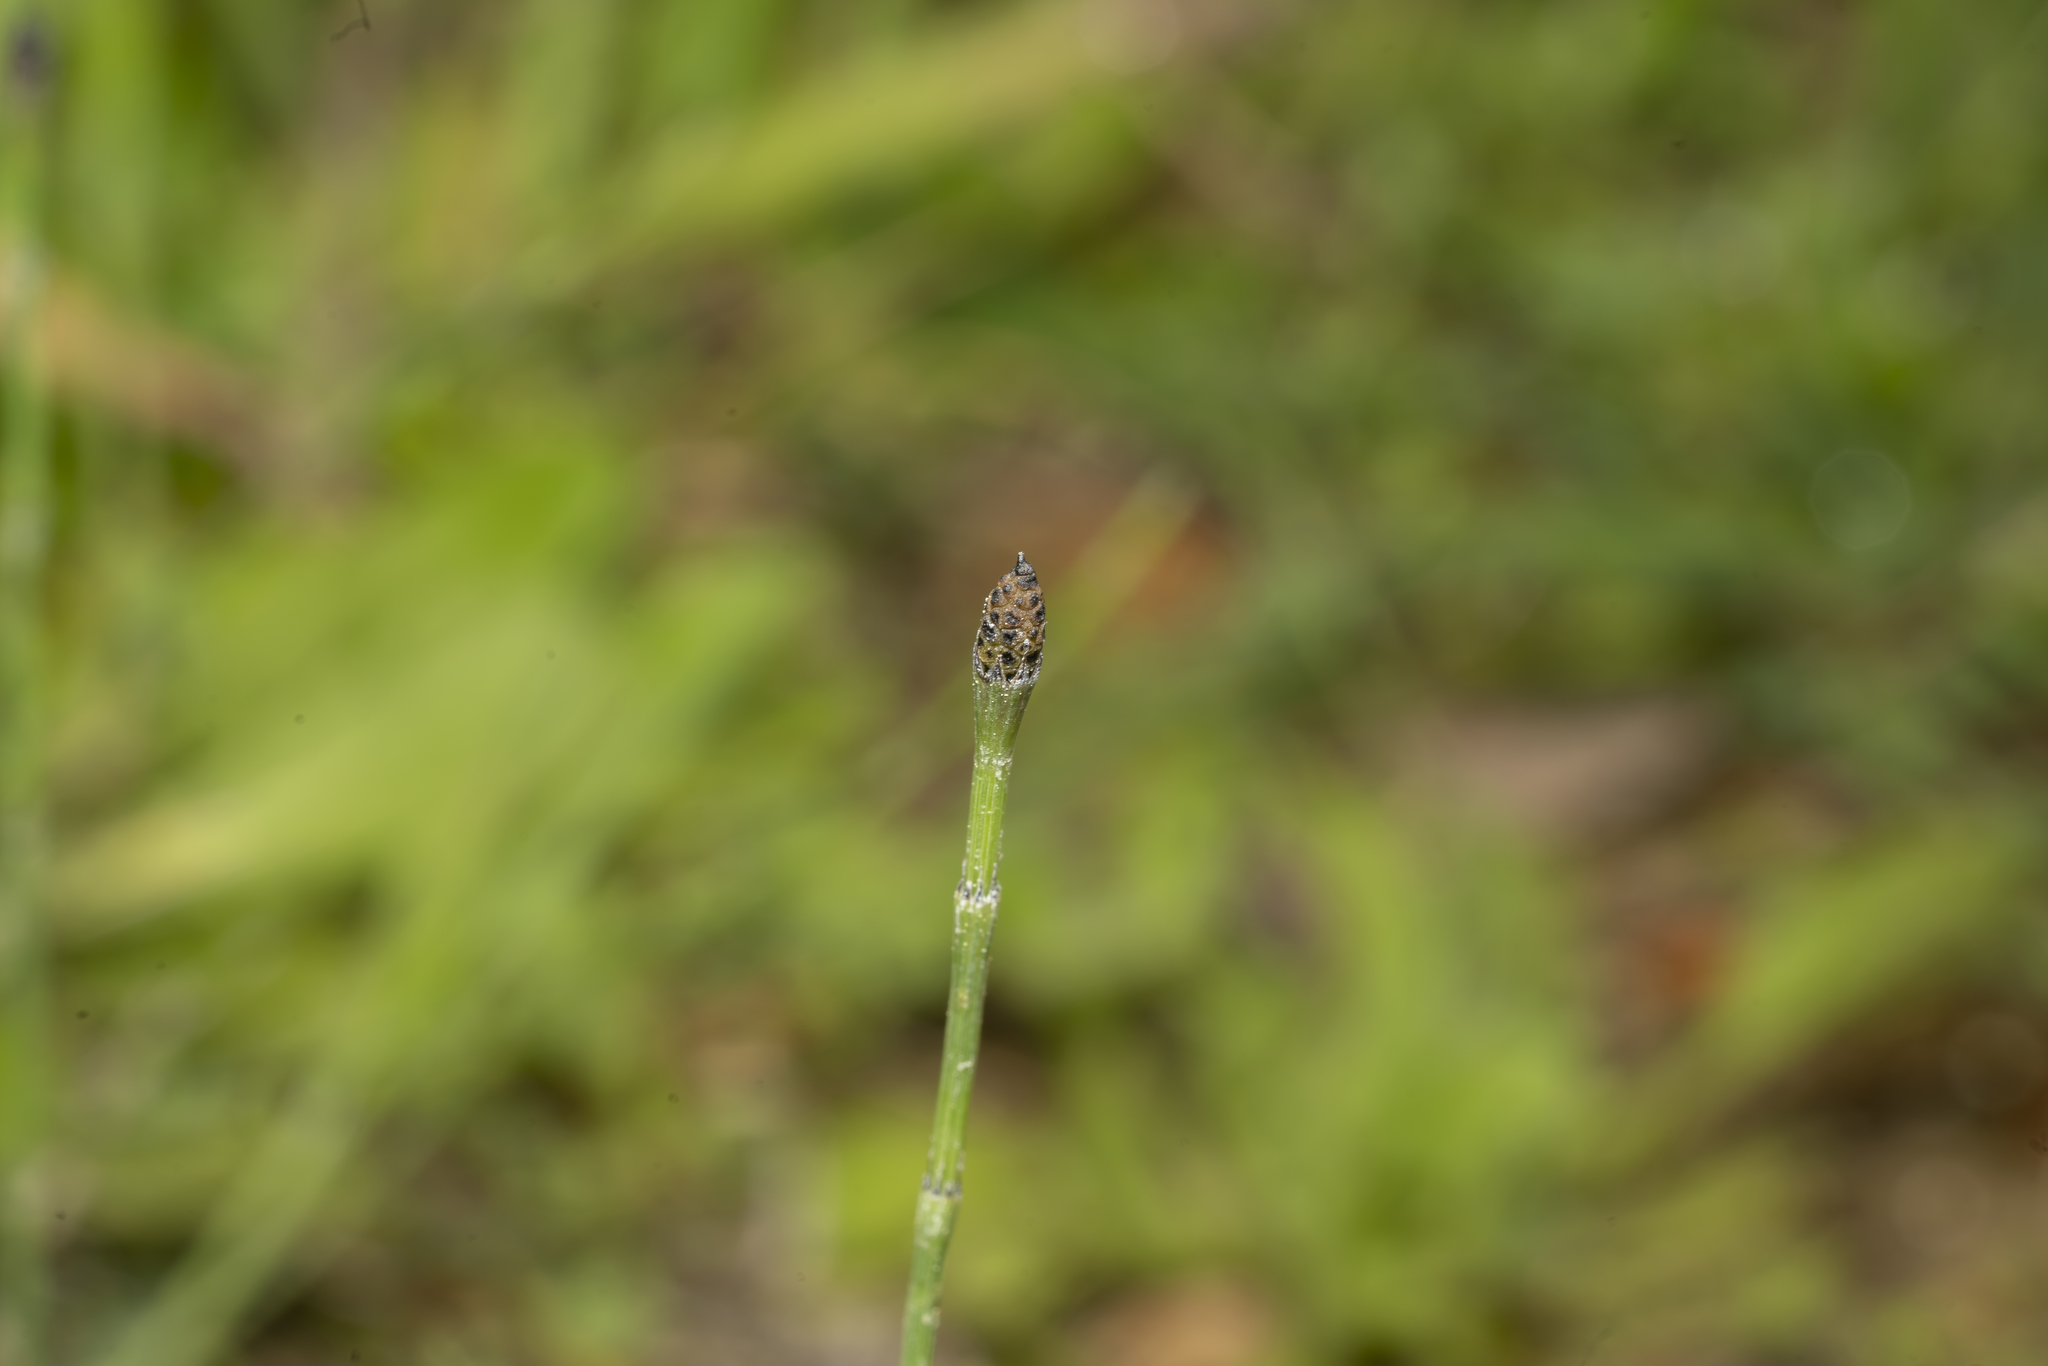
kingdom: Plantae
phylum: Tracheophyta
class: Polypodiopsida
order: Equisetales
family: Equisetaceae
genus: Equisetum
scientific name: Equisetum ramosissimum
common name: Branched horsetail
